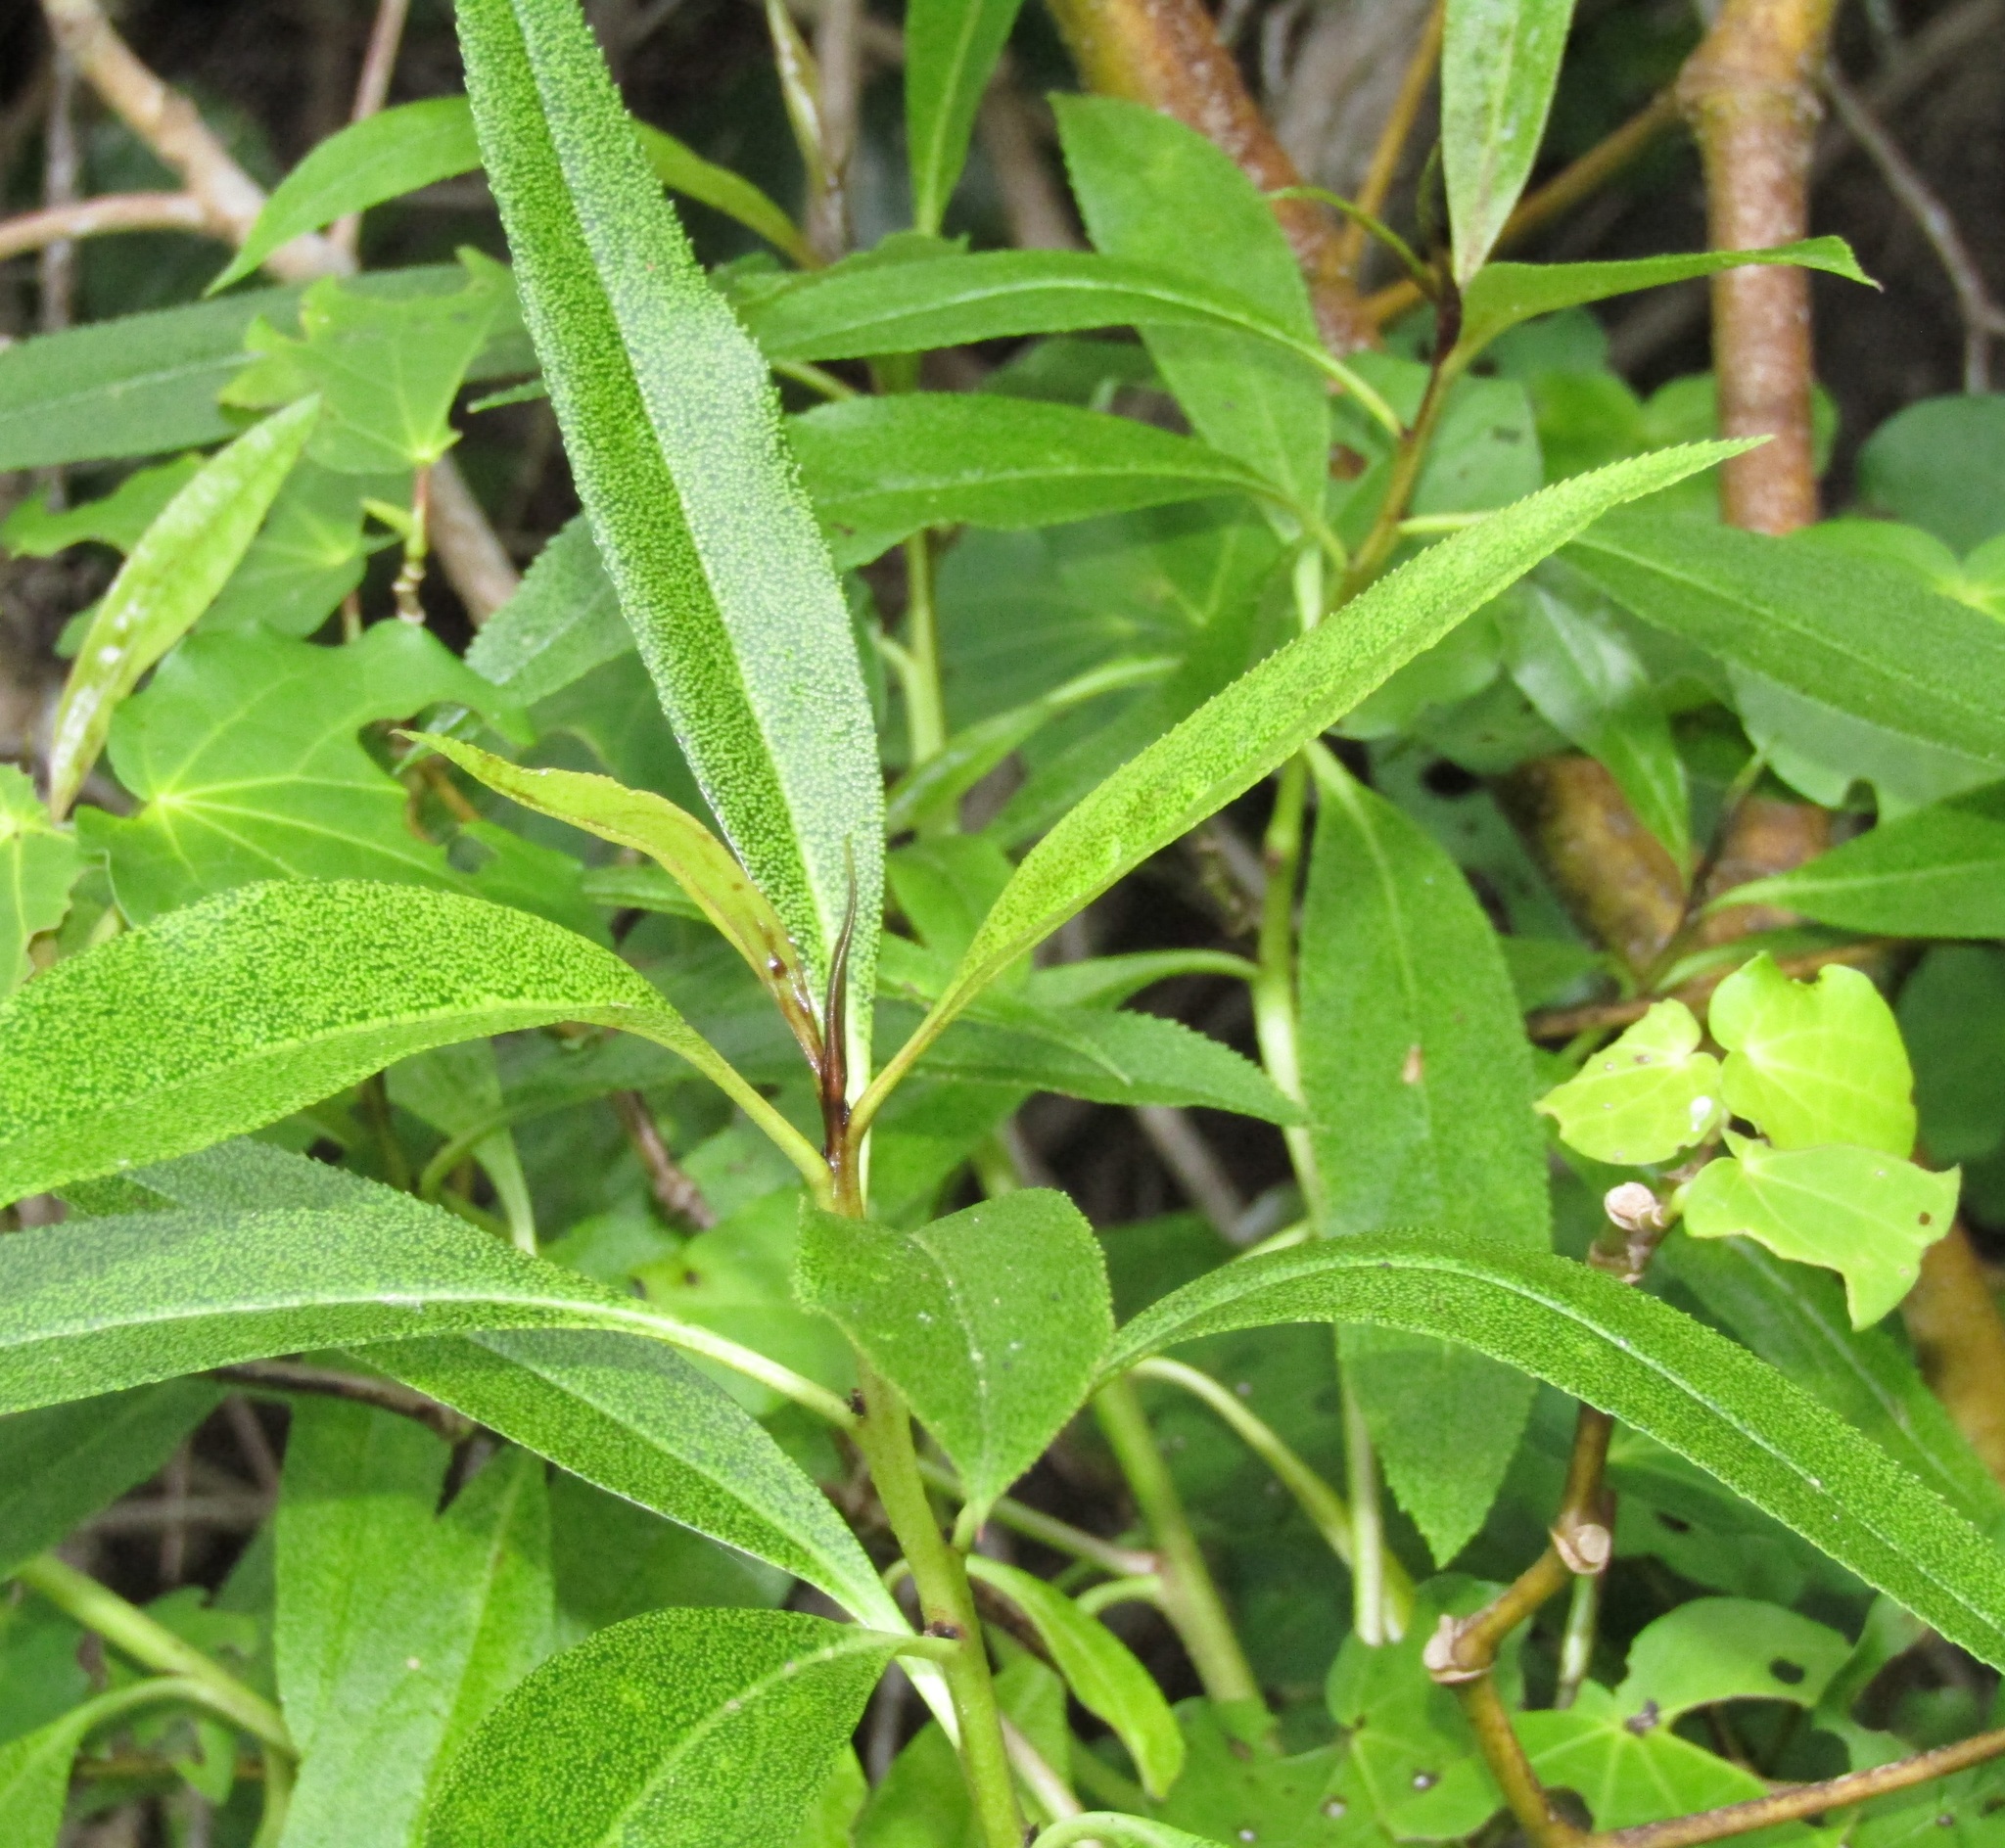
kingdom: Plantae
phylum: Tracheophyta
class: Magnoliopsida
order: Lamiales
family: Scrophulariaceae
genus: Myoporum
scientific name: Myoporum laetum
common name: Ngaio tree
